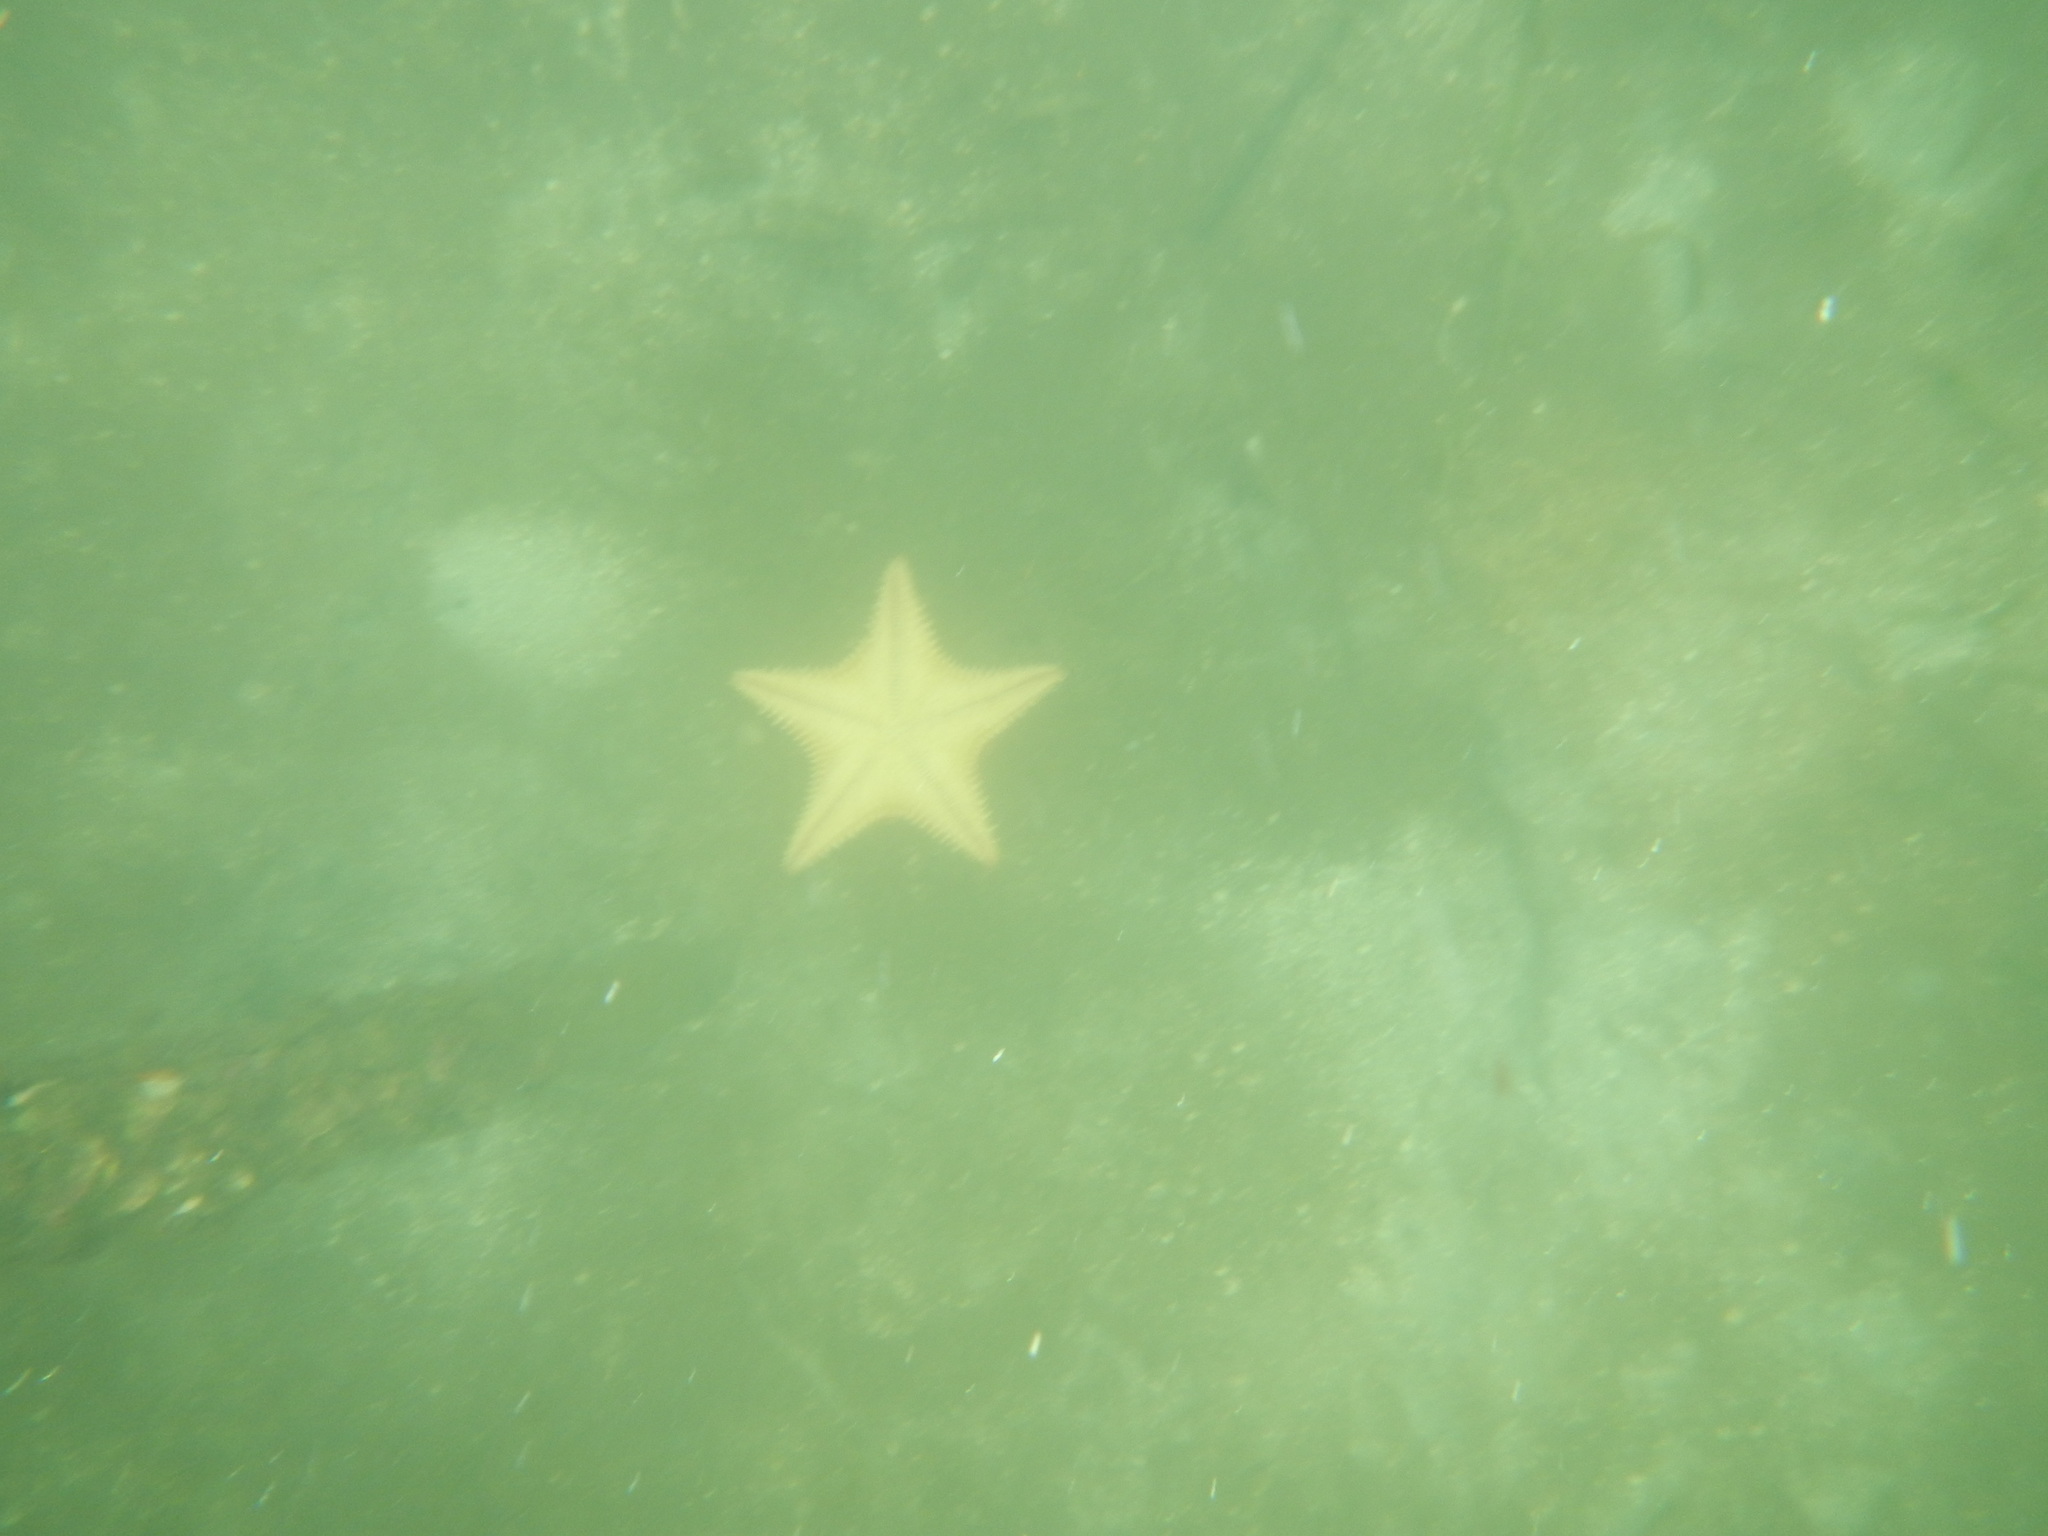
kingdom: Animalia
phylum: Echinodermata
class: Asteroidea
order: Valvatida
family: Oreasteridae
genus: Oreaster
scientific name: Oreaster reticulatus
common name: Cushion sea star
